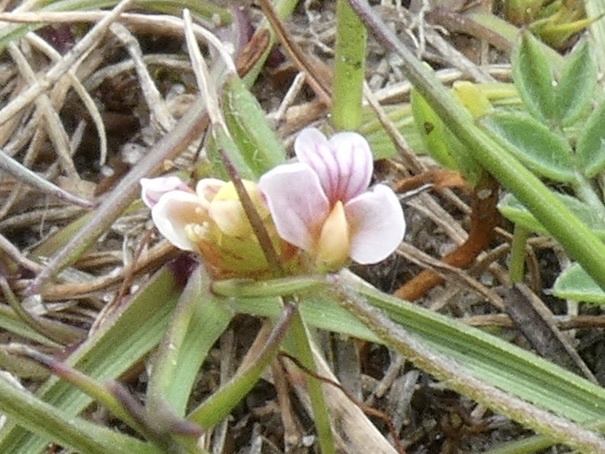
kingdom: Plantae
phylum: Tracheophyta
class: Magnoliopsida
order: Fabales
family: Fabaceae
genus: Ornithopus
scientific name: Ornithopus perpusillus
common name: Bird's-foot
